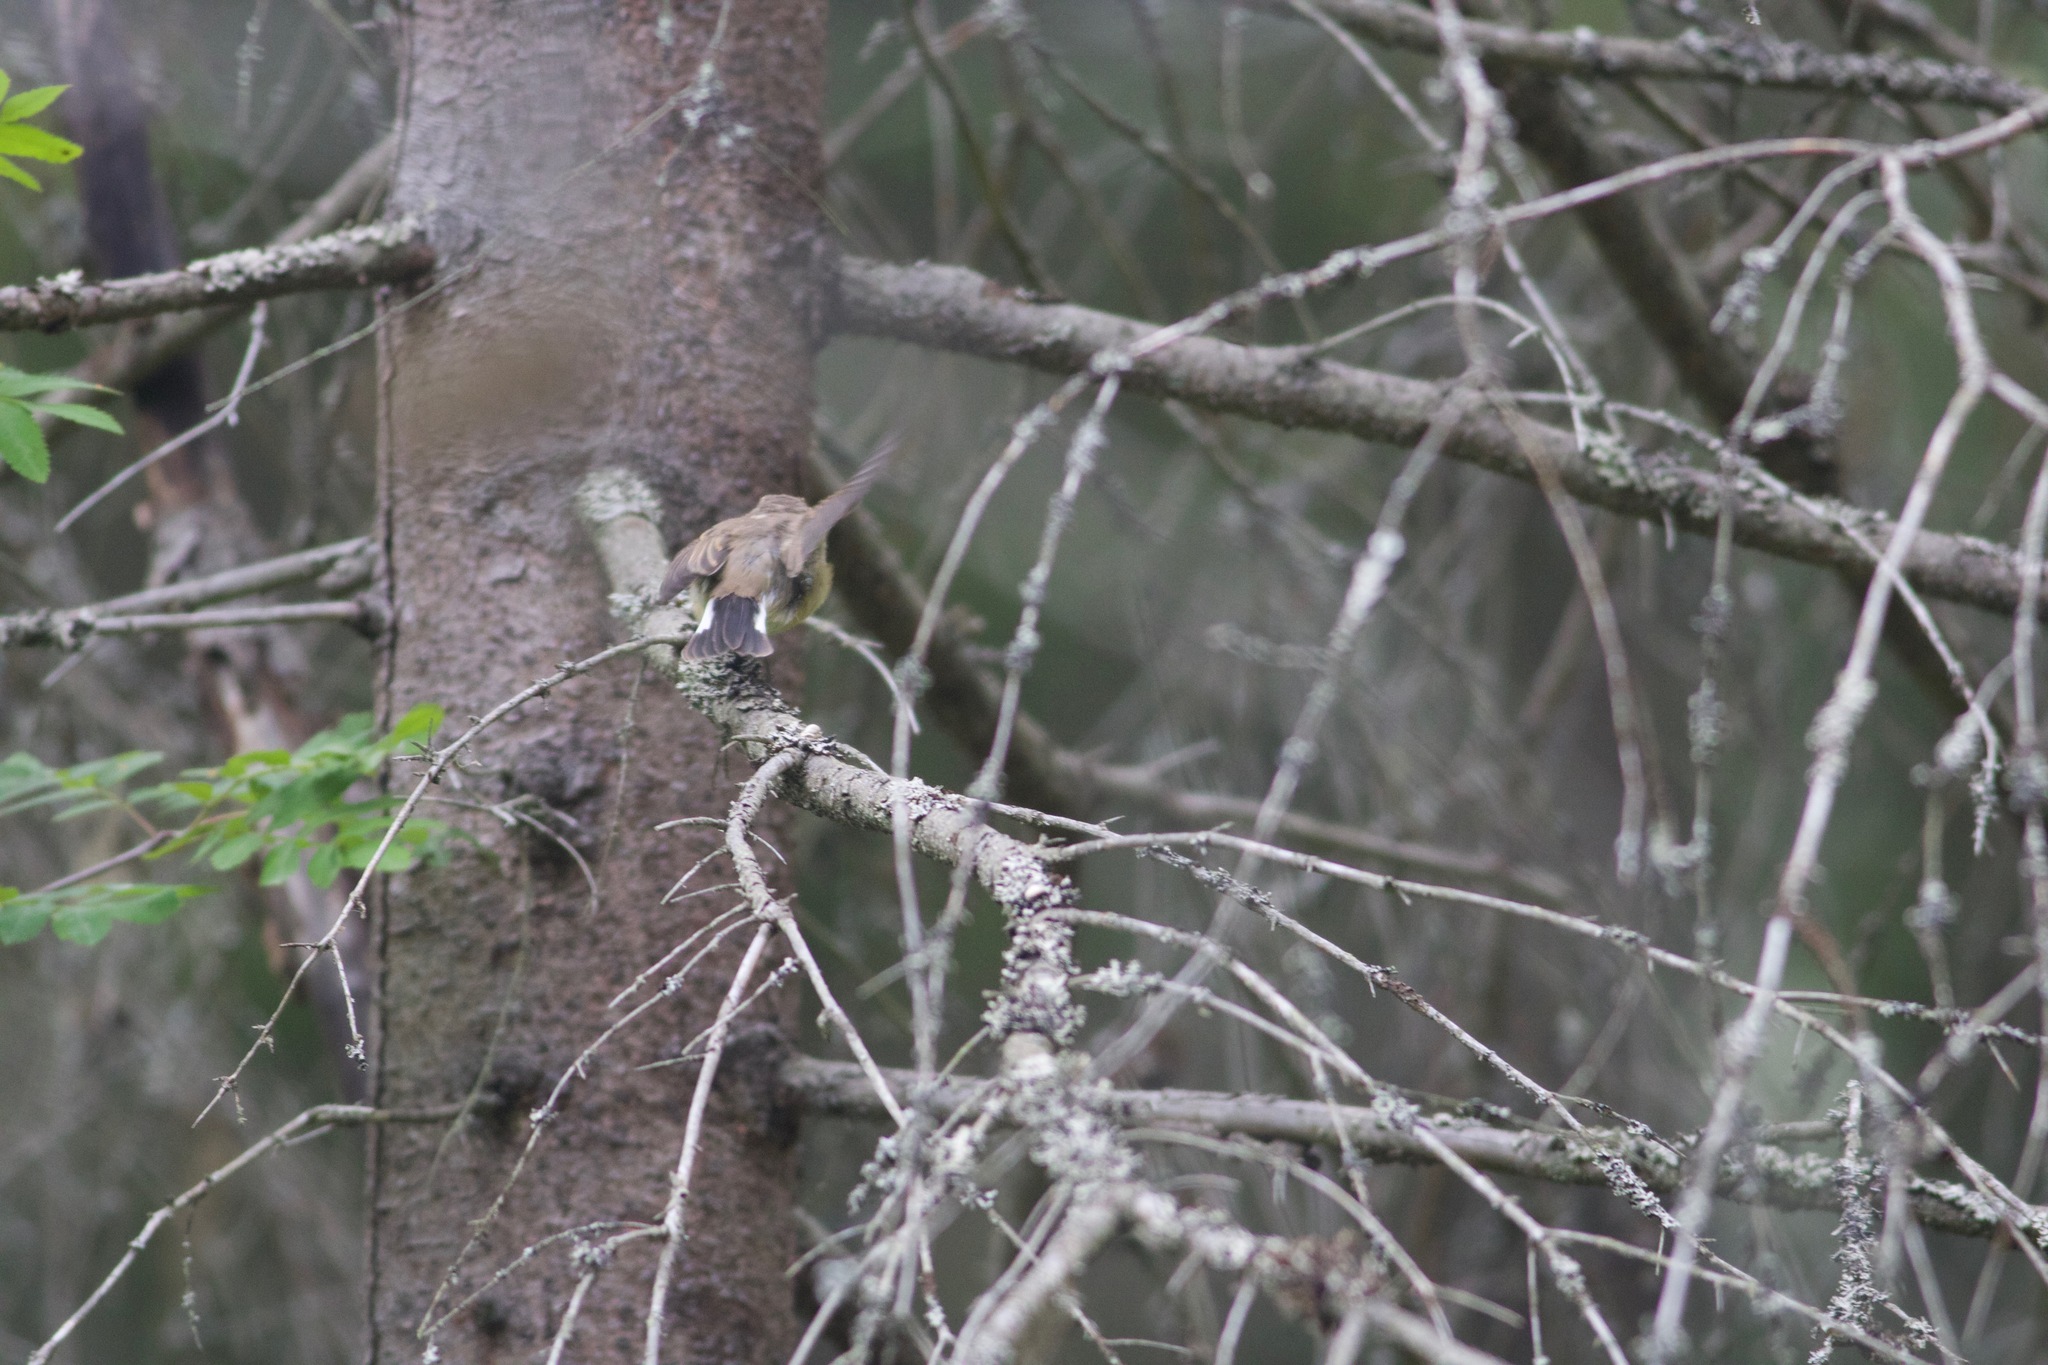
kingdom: Animalia
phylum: Chordata
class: Aves
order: Passeriformes
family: Muscicapidae
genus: Ficedula
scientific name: Ficedula parva
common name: Red-breasted flycatcher
